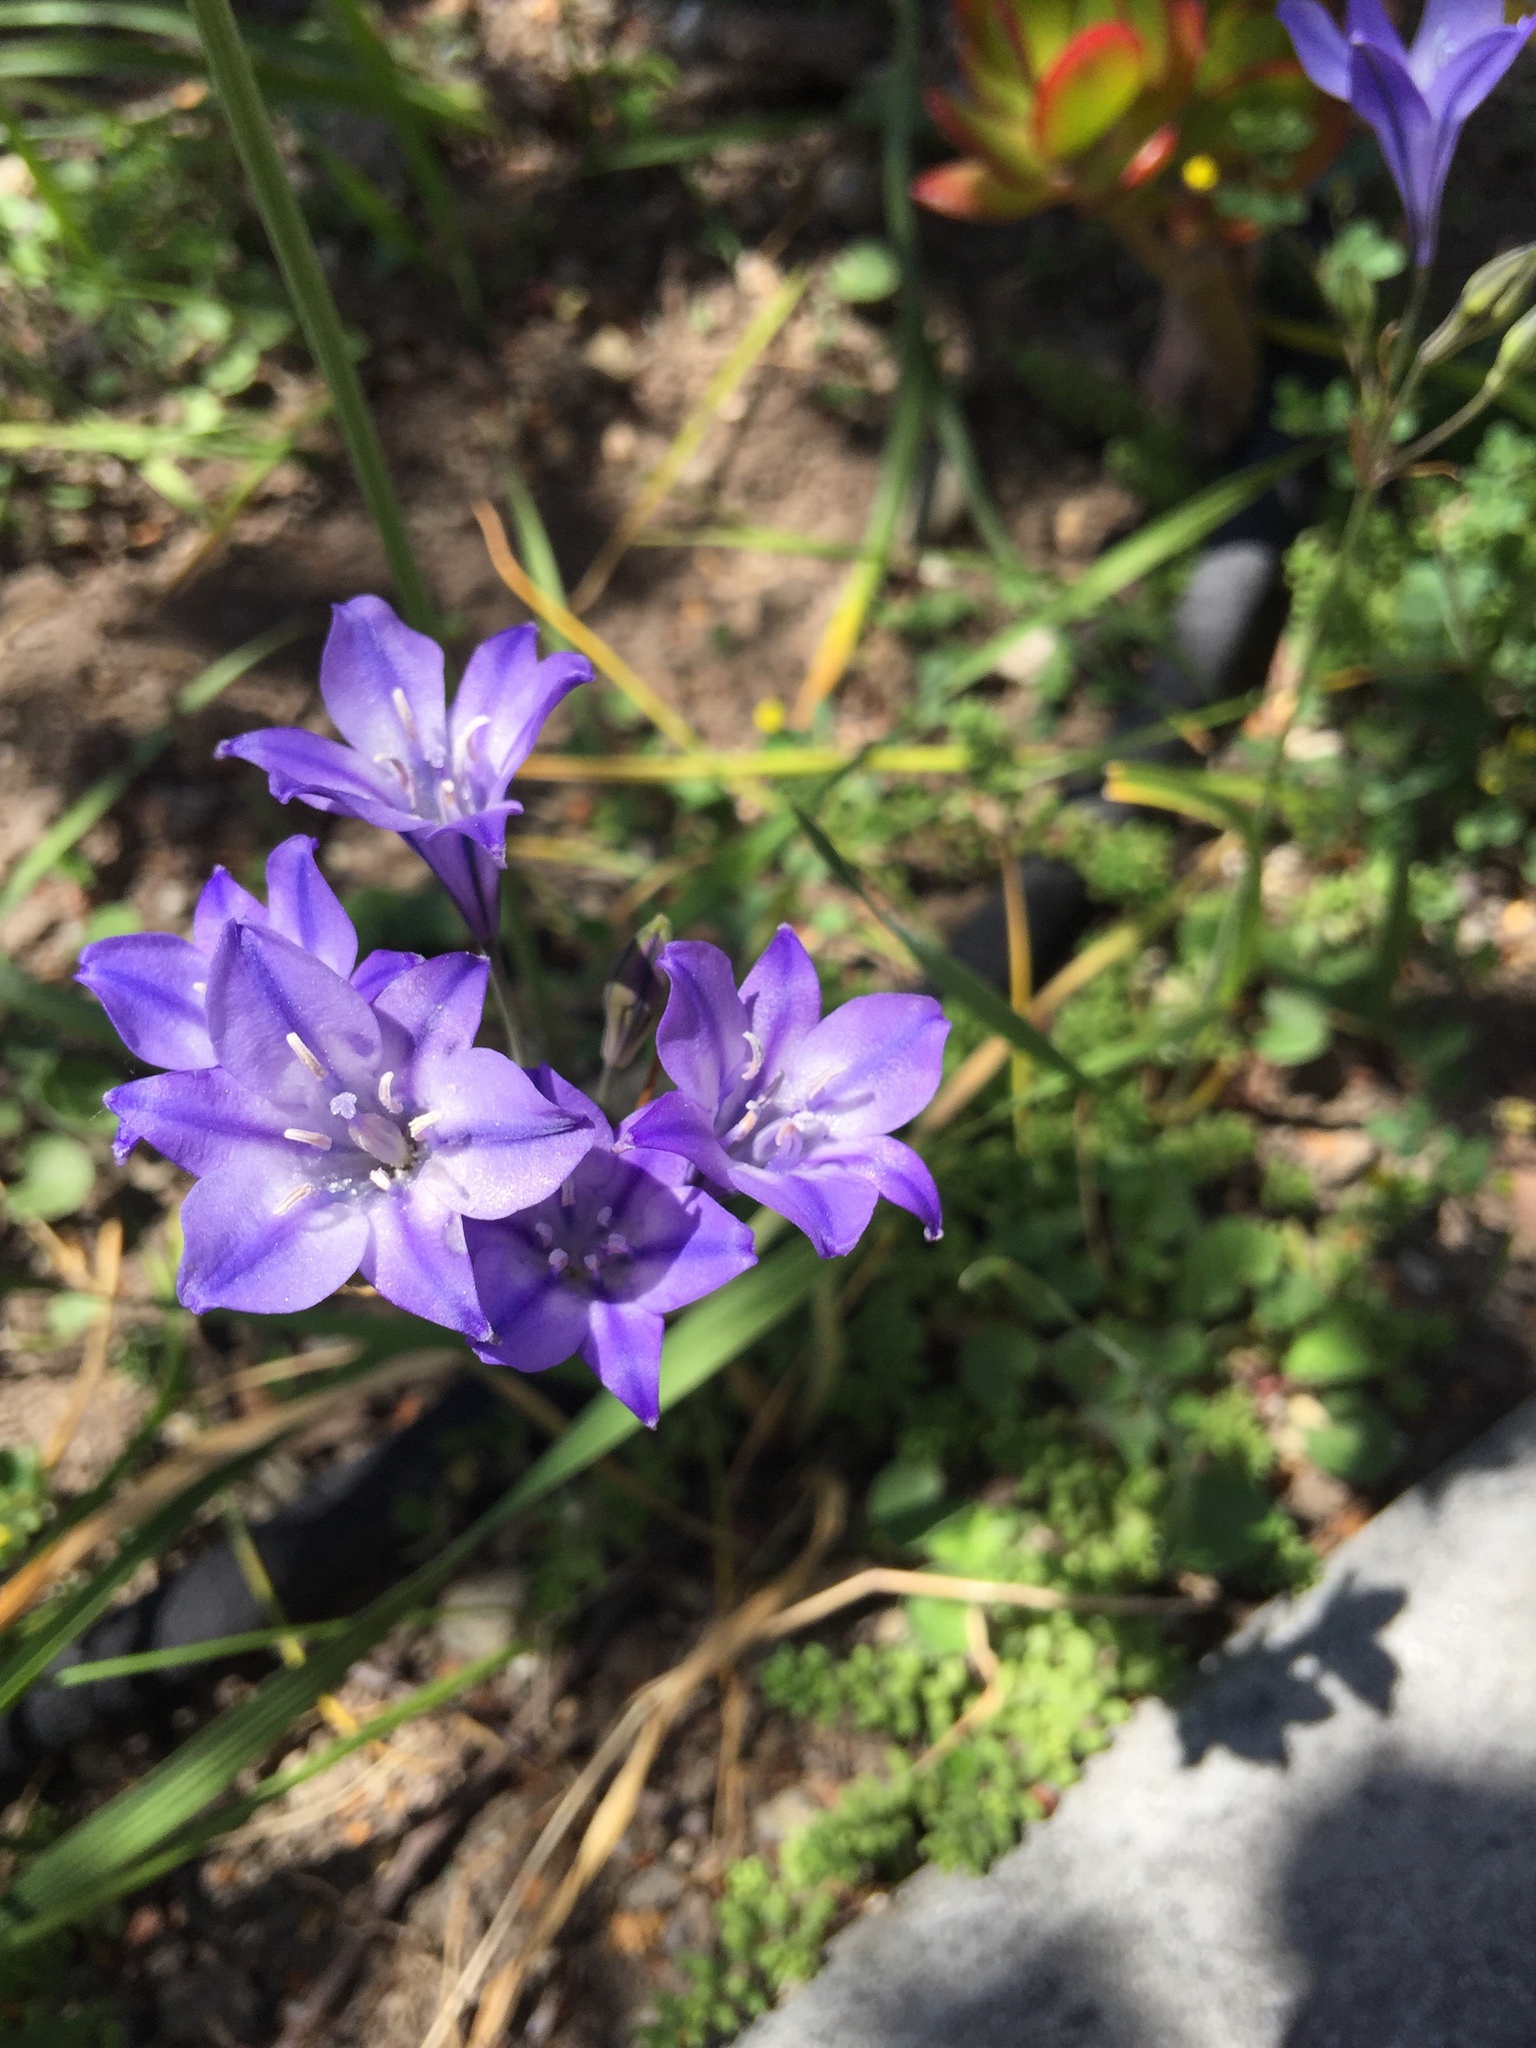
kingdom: Plantae
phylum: Tracheophyta
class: Liliopsida
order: Asparagales
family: Asparagaceae
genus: Triteleia
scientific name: Triteleia laxa
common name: Triplet-lily
